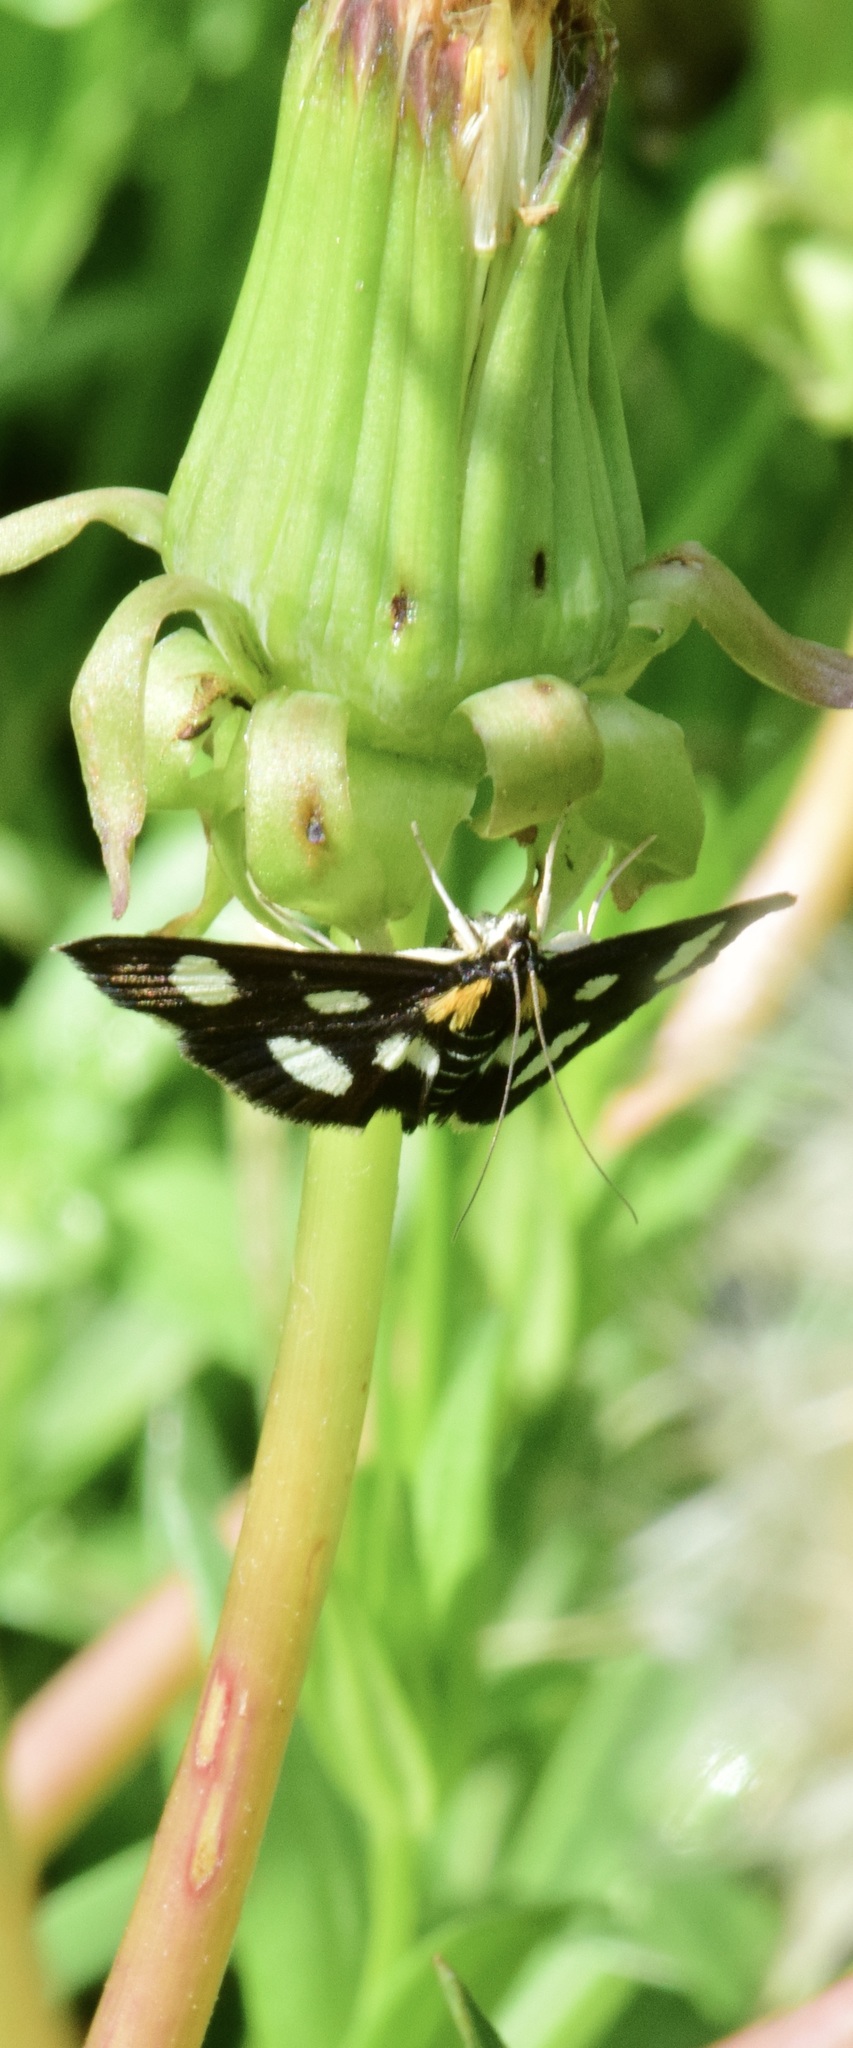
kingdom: Animalia
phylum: Arthropoda
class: Insecta
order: Lepidoptera
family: Crambidae
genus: Anania
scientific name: Anania funebris
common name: White-spotted sable moth
